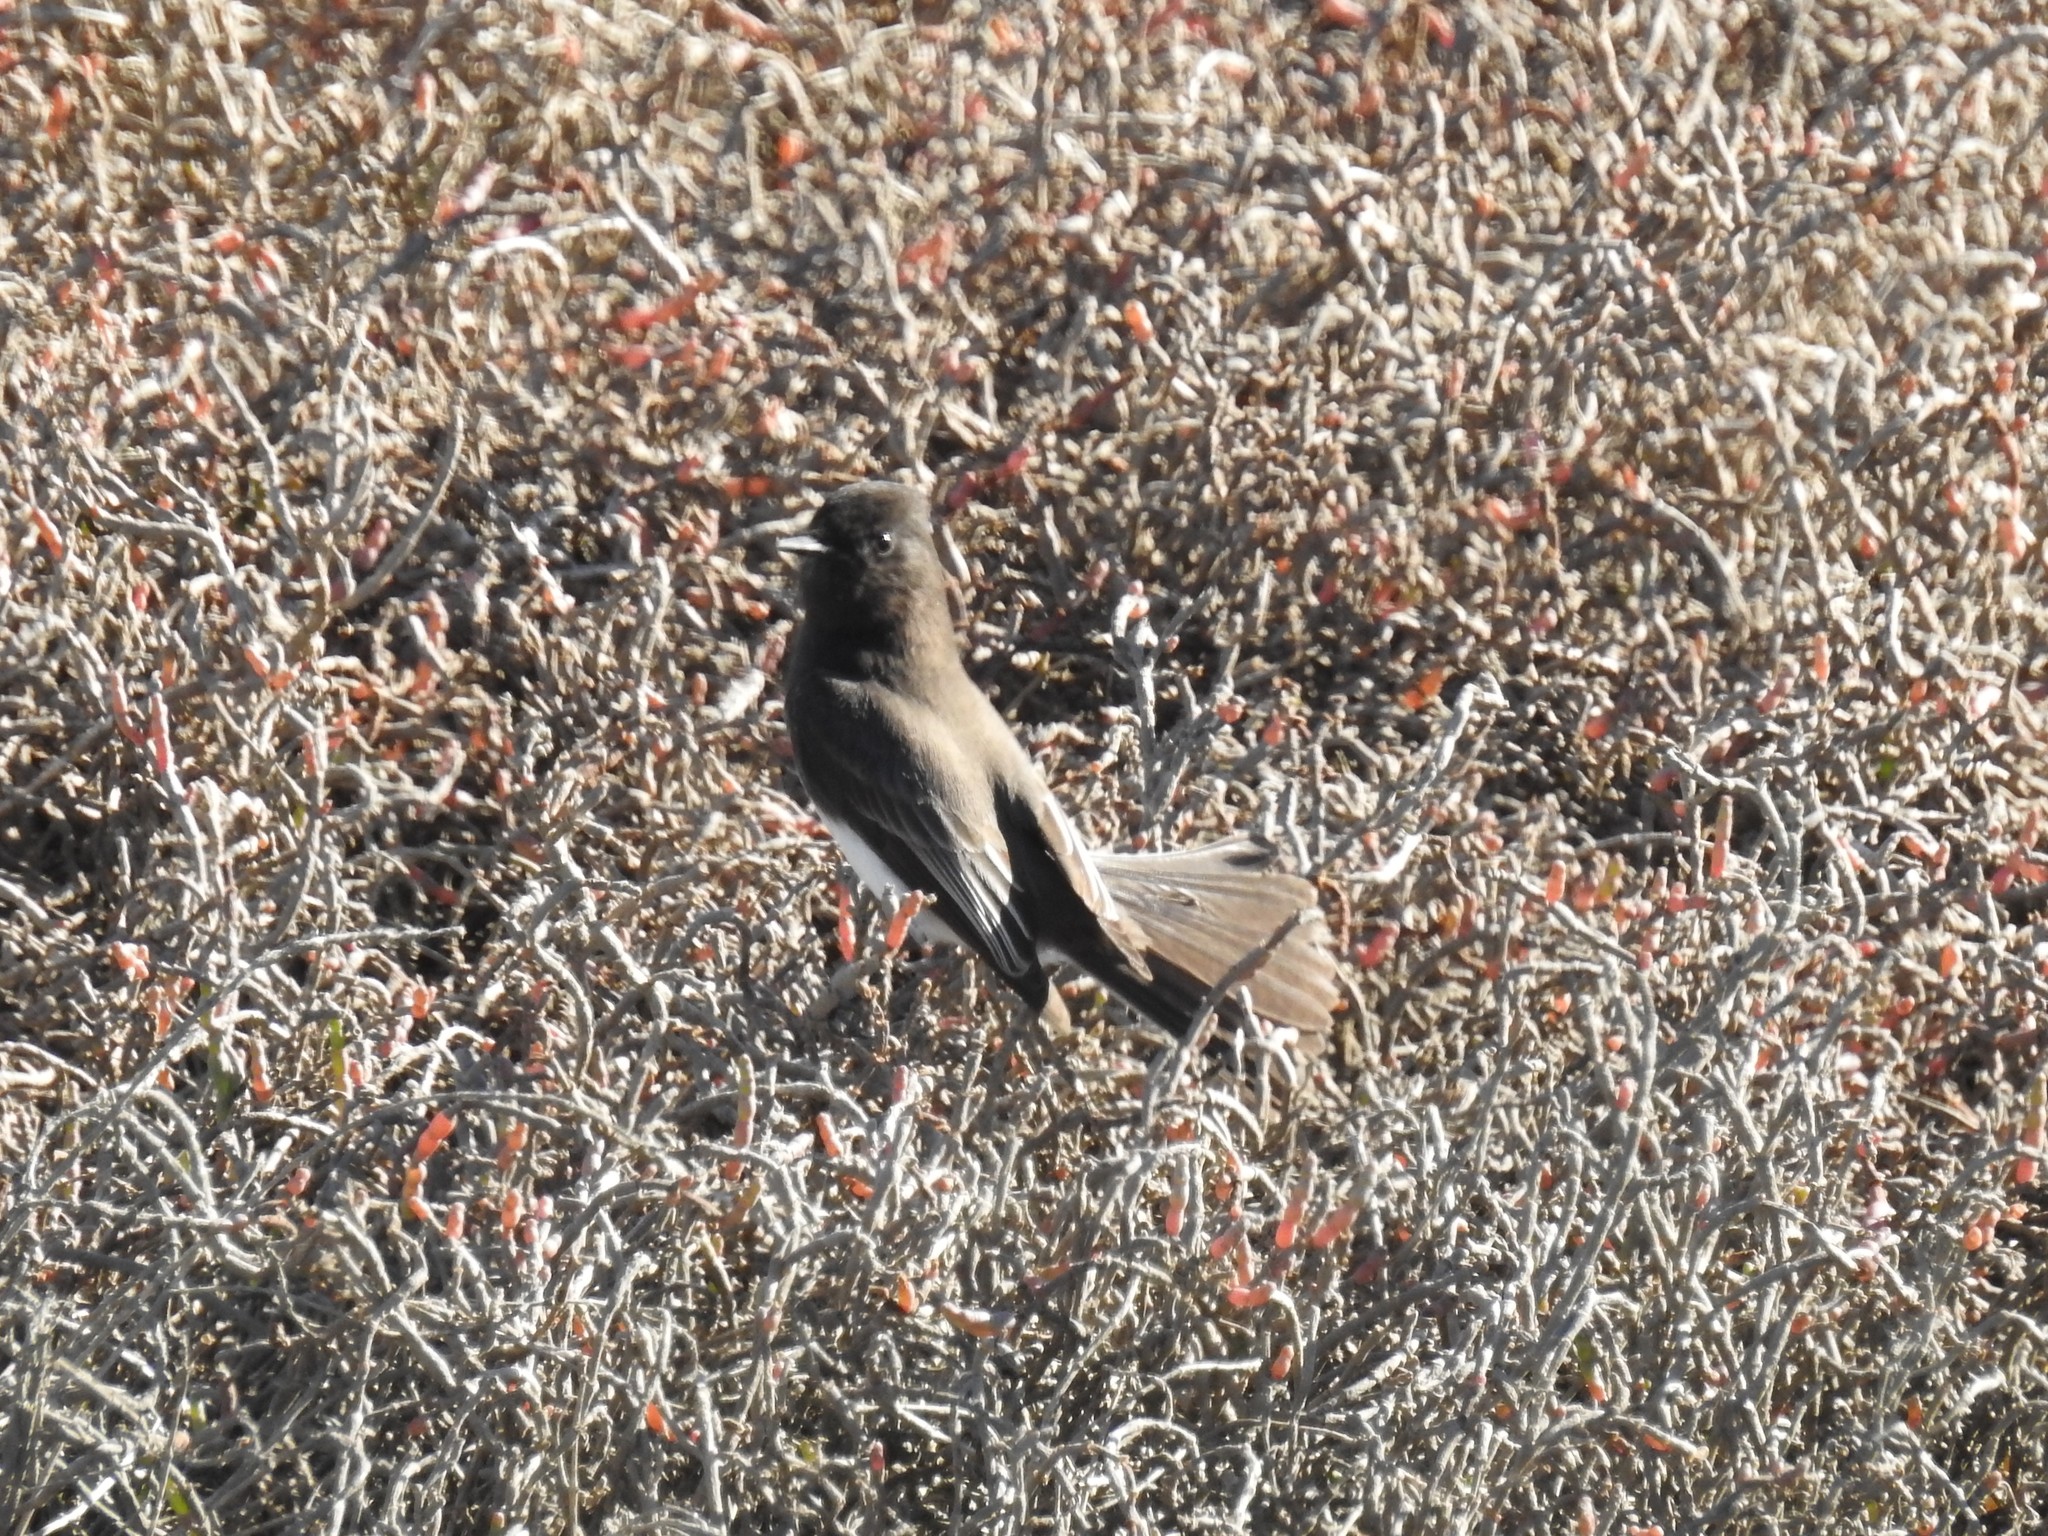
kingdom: Animalia
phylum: Chordata
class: Aves
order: Passeriformes
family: Tyrannidae
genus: Sayornis
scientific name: Sayornis nigricans
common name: Black phoebe
